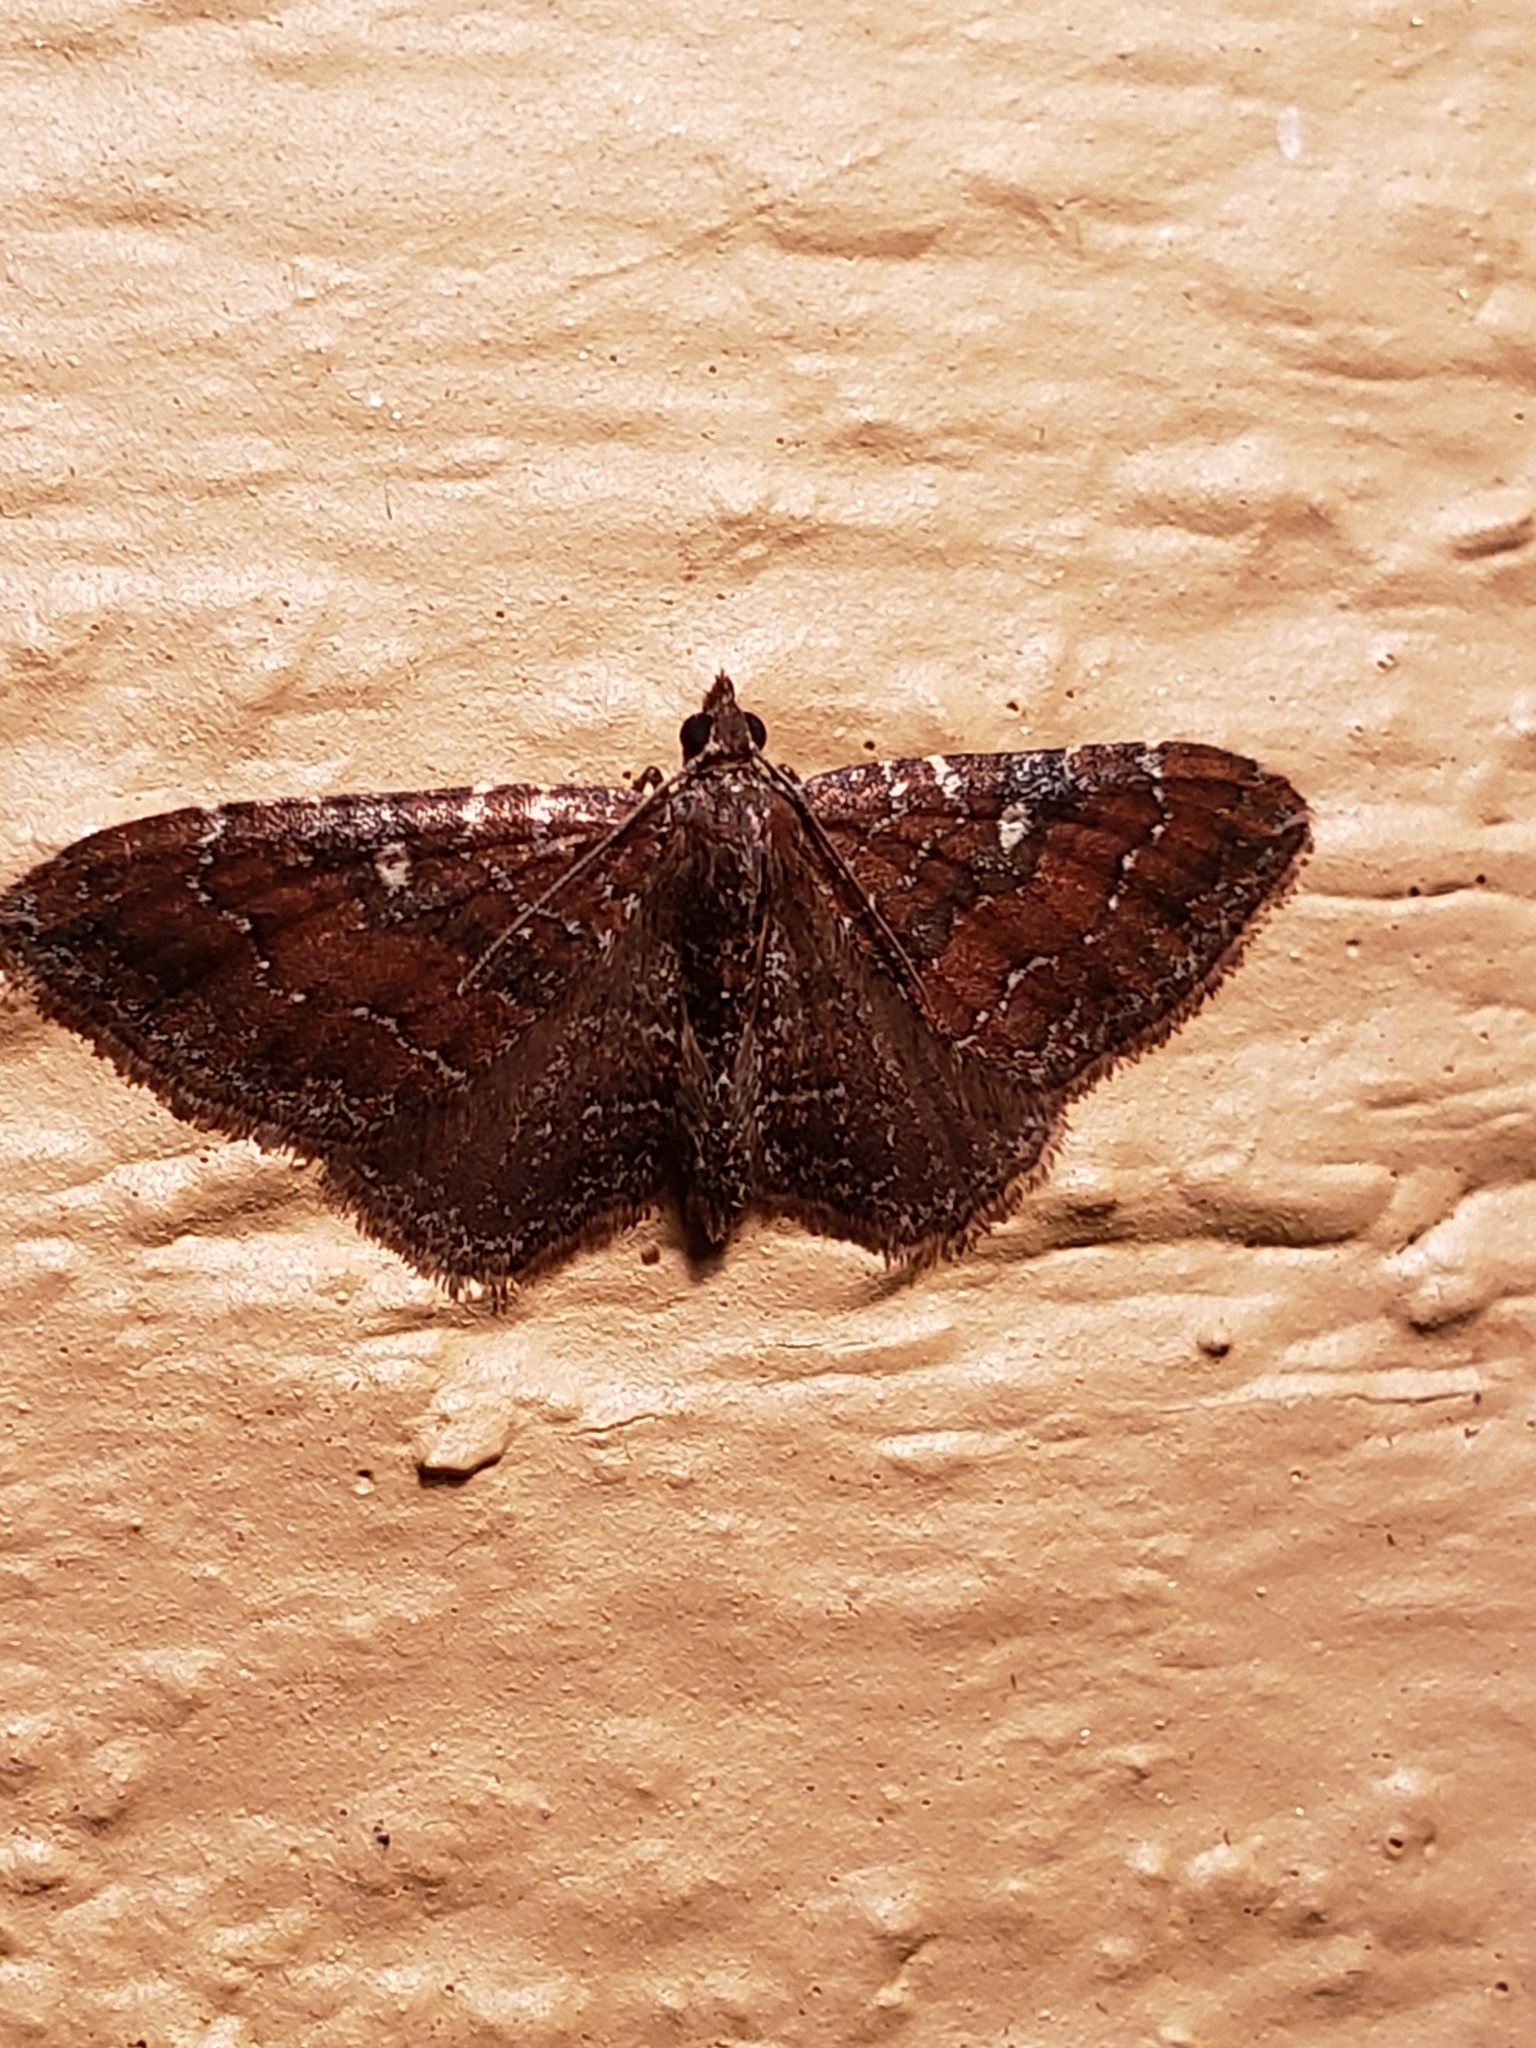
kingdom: Animalia
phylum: Arthropoda
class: Insecta
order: Lepidoptera
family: Geometridae
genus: Orthonama
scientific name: Orthonama obstipata
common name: The gem
